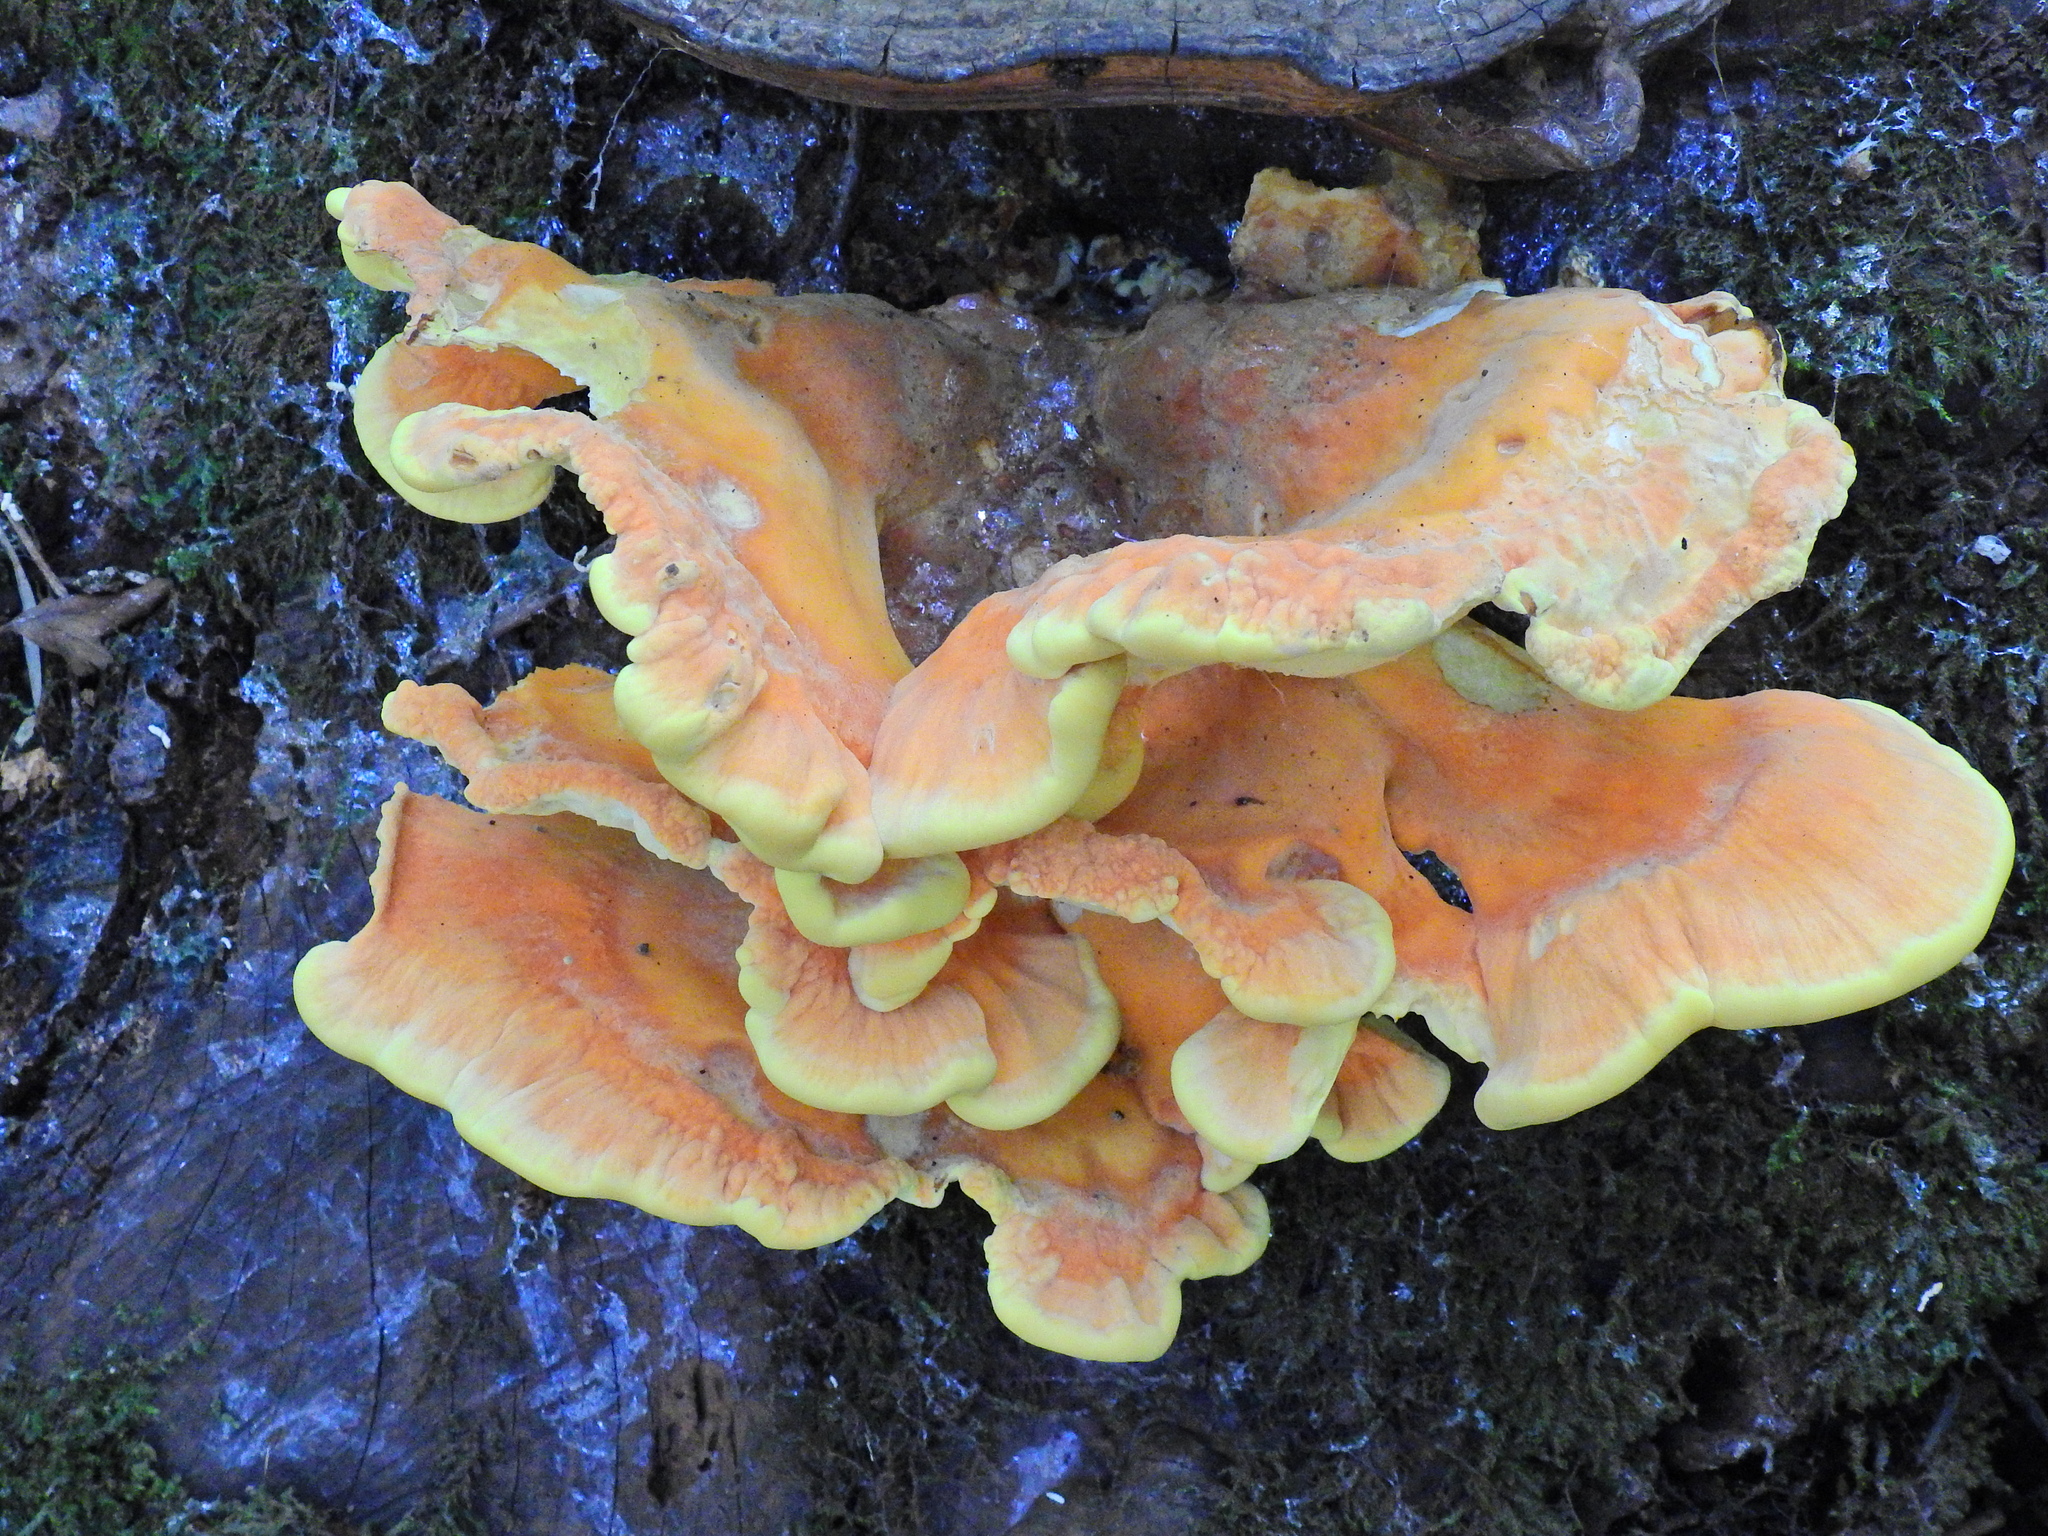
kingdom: Fungi
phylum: Basidiomycota
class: Agaricomycetes
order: Polyporales
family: Laetiporaceae
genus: Laetiporus
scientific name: Laetiporus sulphureus
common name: Chicken of the woods
